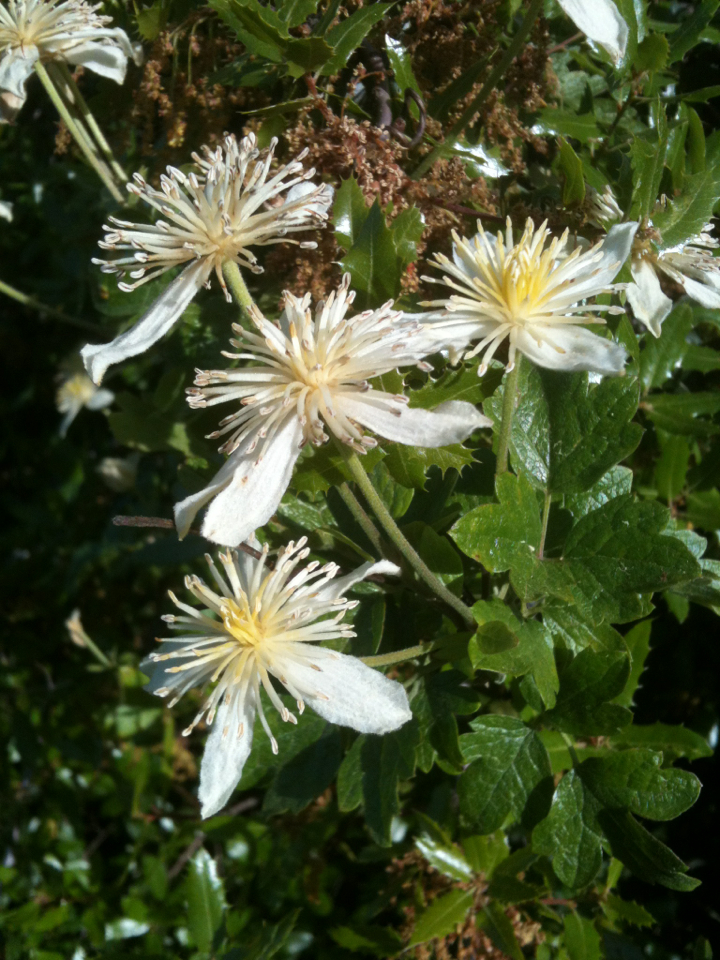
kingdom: Plantae
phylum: Tracheophyta
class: Magnoliopsida
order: Ranunculales
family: Ranunculaceae
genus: Clematis
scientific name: Clematis lasiantha
